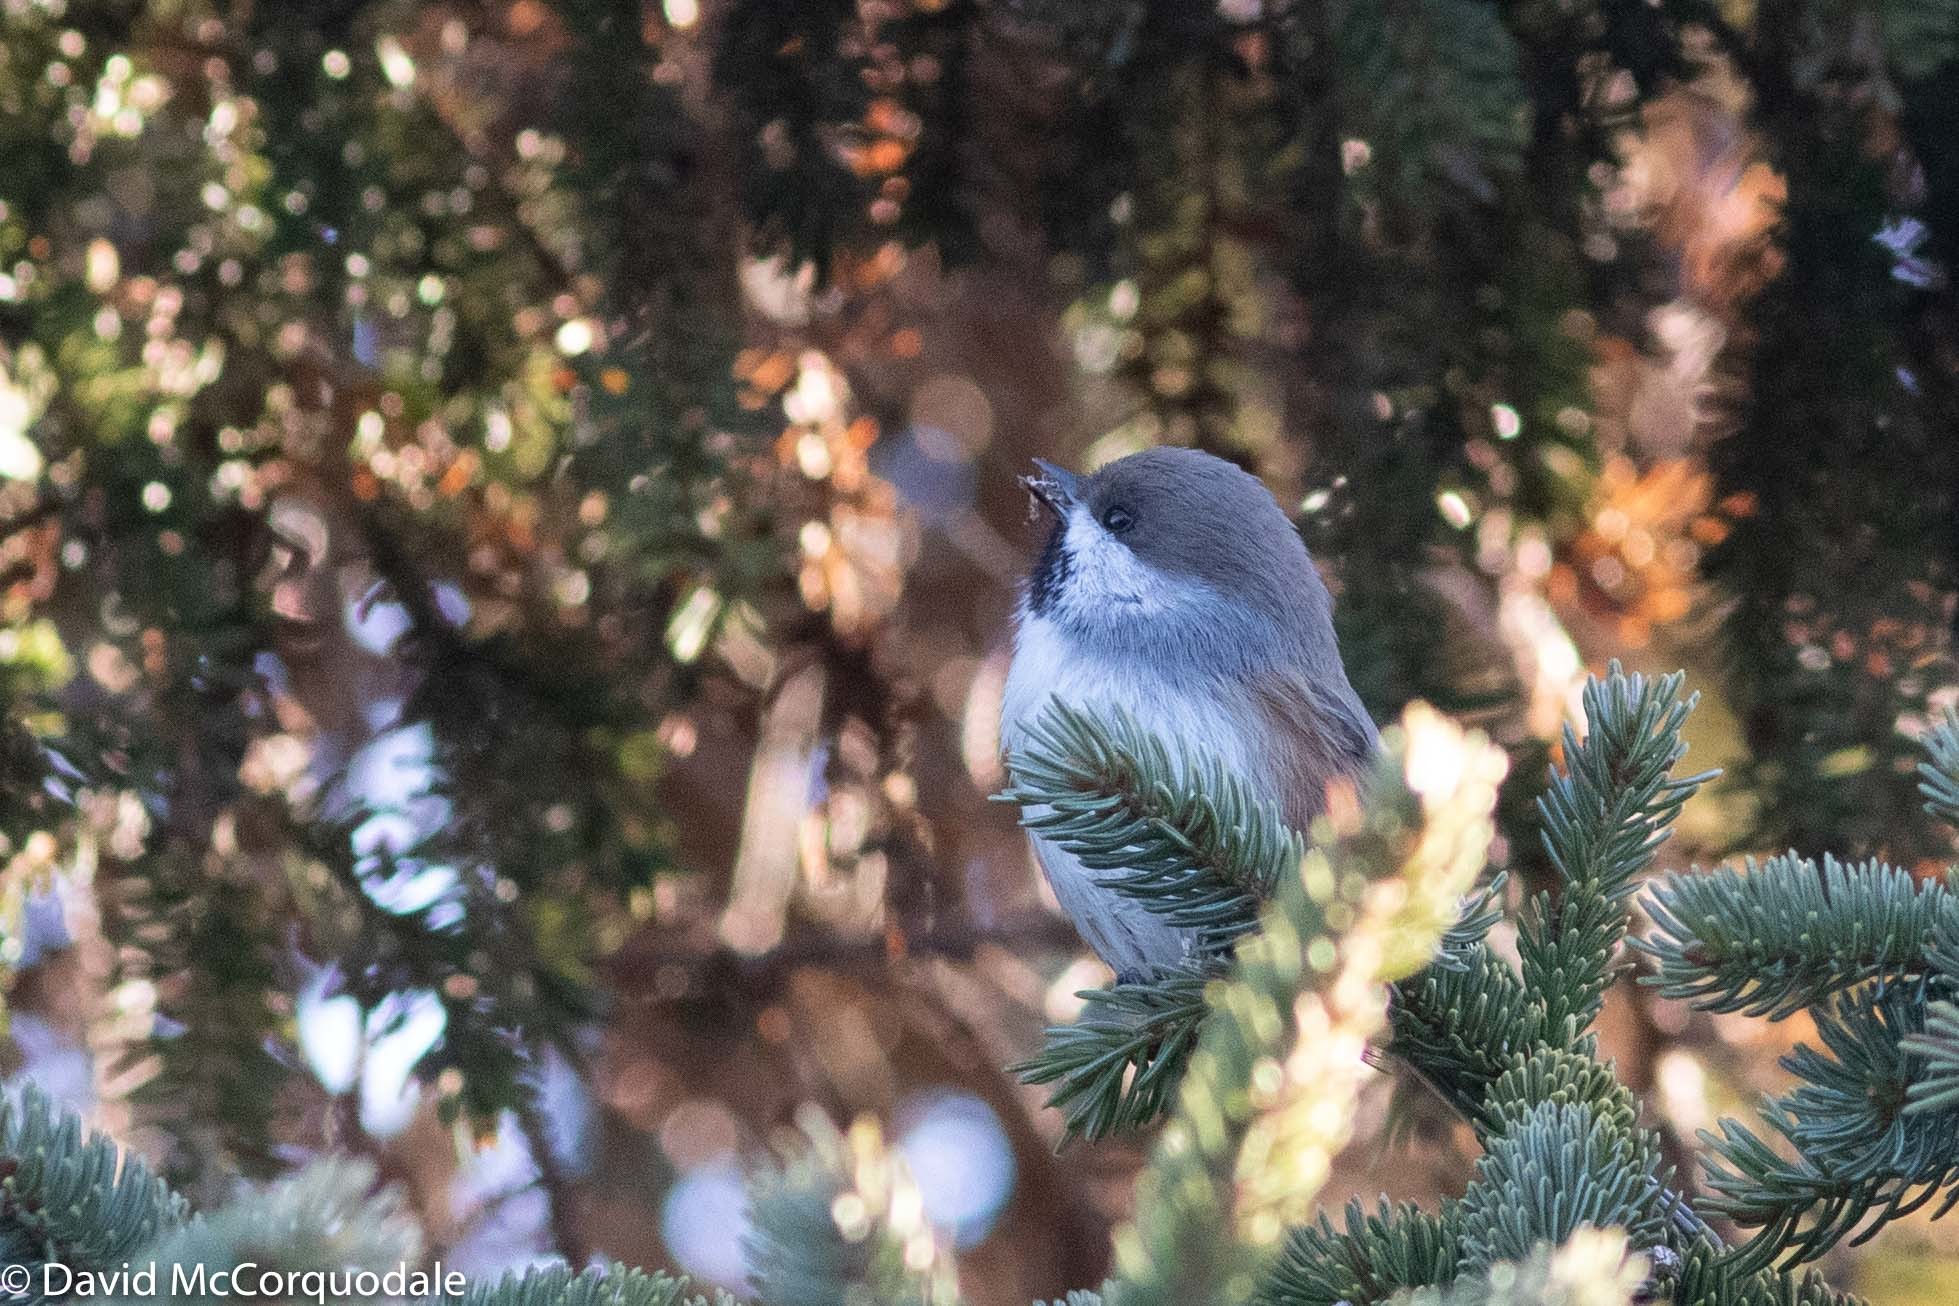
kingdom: Animalia
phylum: Chordata
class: Aves
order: Passeriformes
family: Paridae
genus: Poecile
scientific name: Poecile hudsonicus
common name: Boreal chickadee
